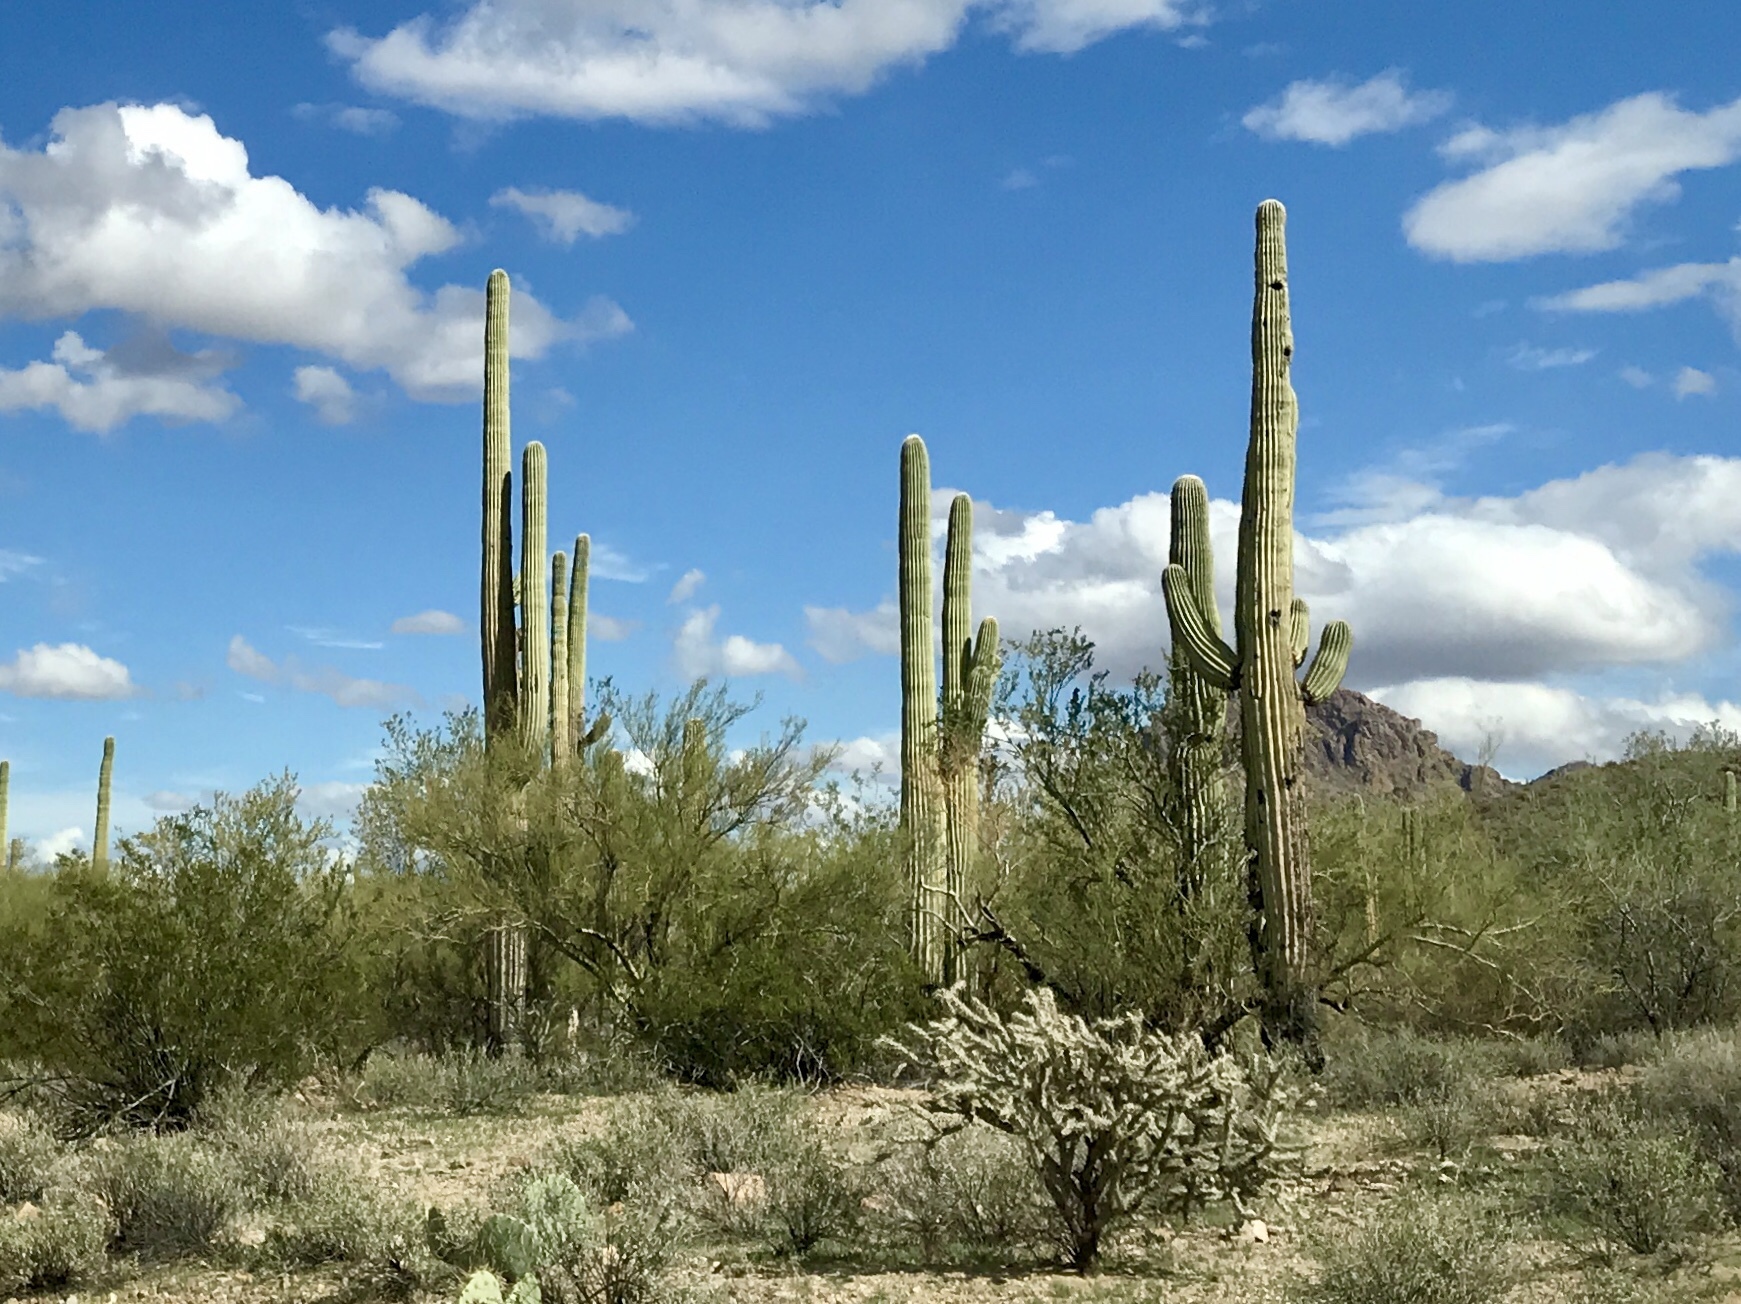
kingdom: Plantae
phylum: Tracheophyta
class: Magnoliopsida
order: Caryophyllales
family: Cactaceae
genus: Carnegiea
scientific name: Carnegiea gigantea
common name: Saguaro
